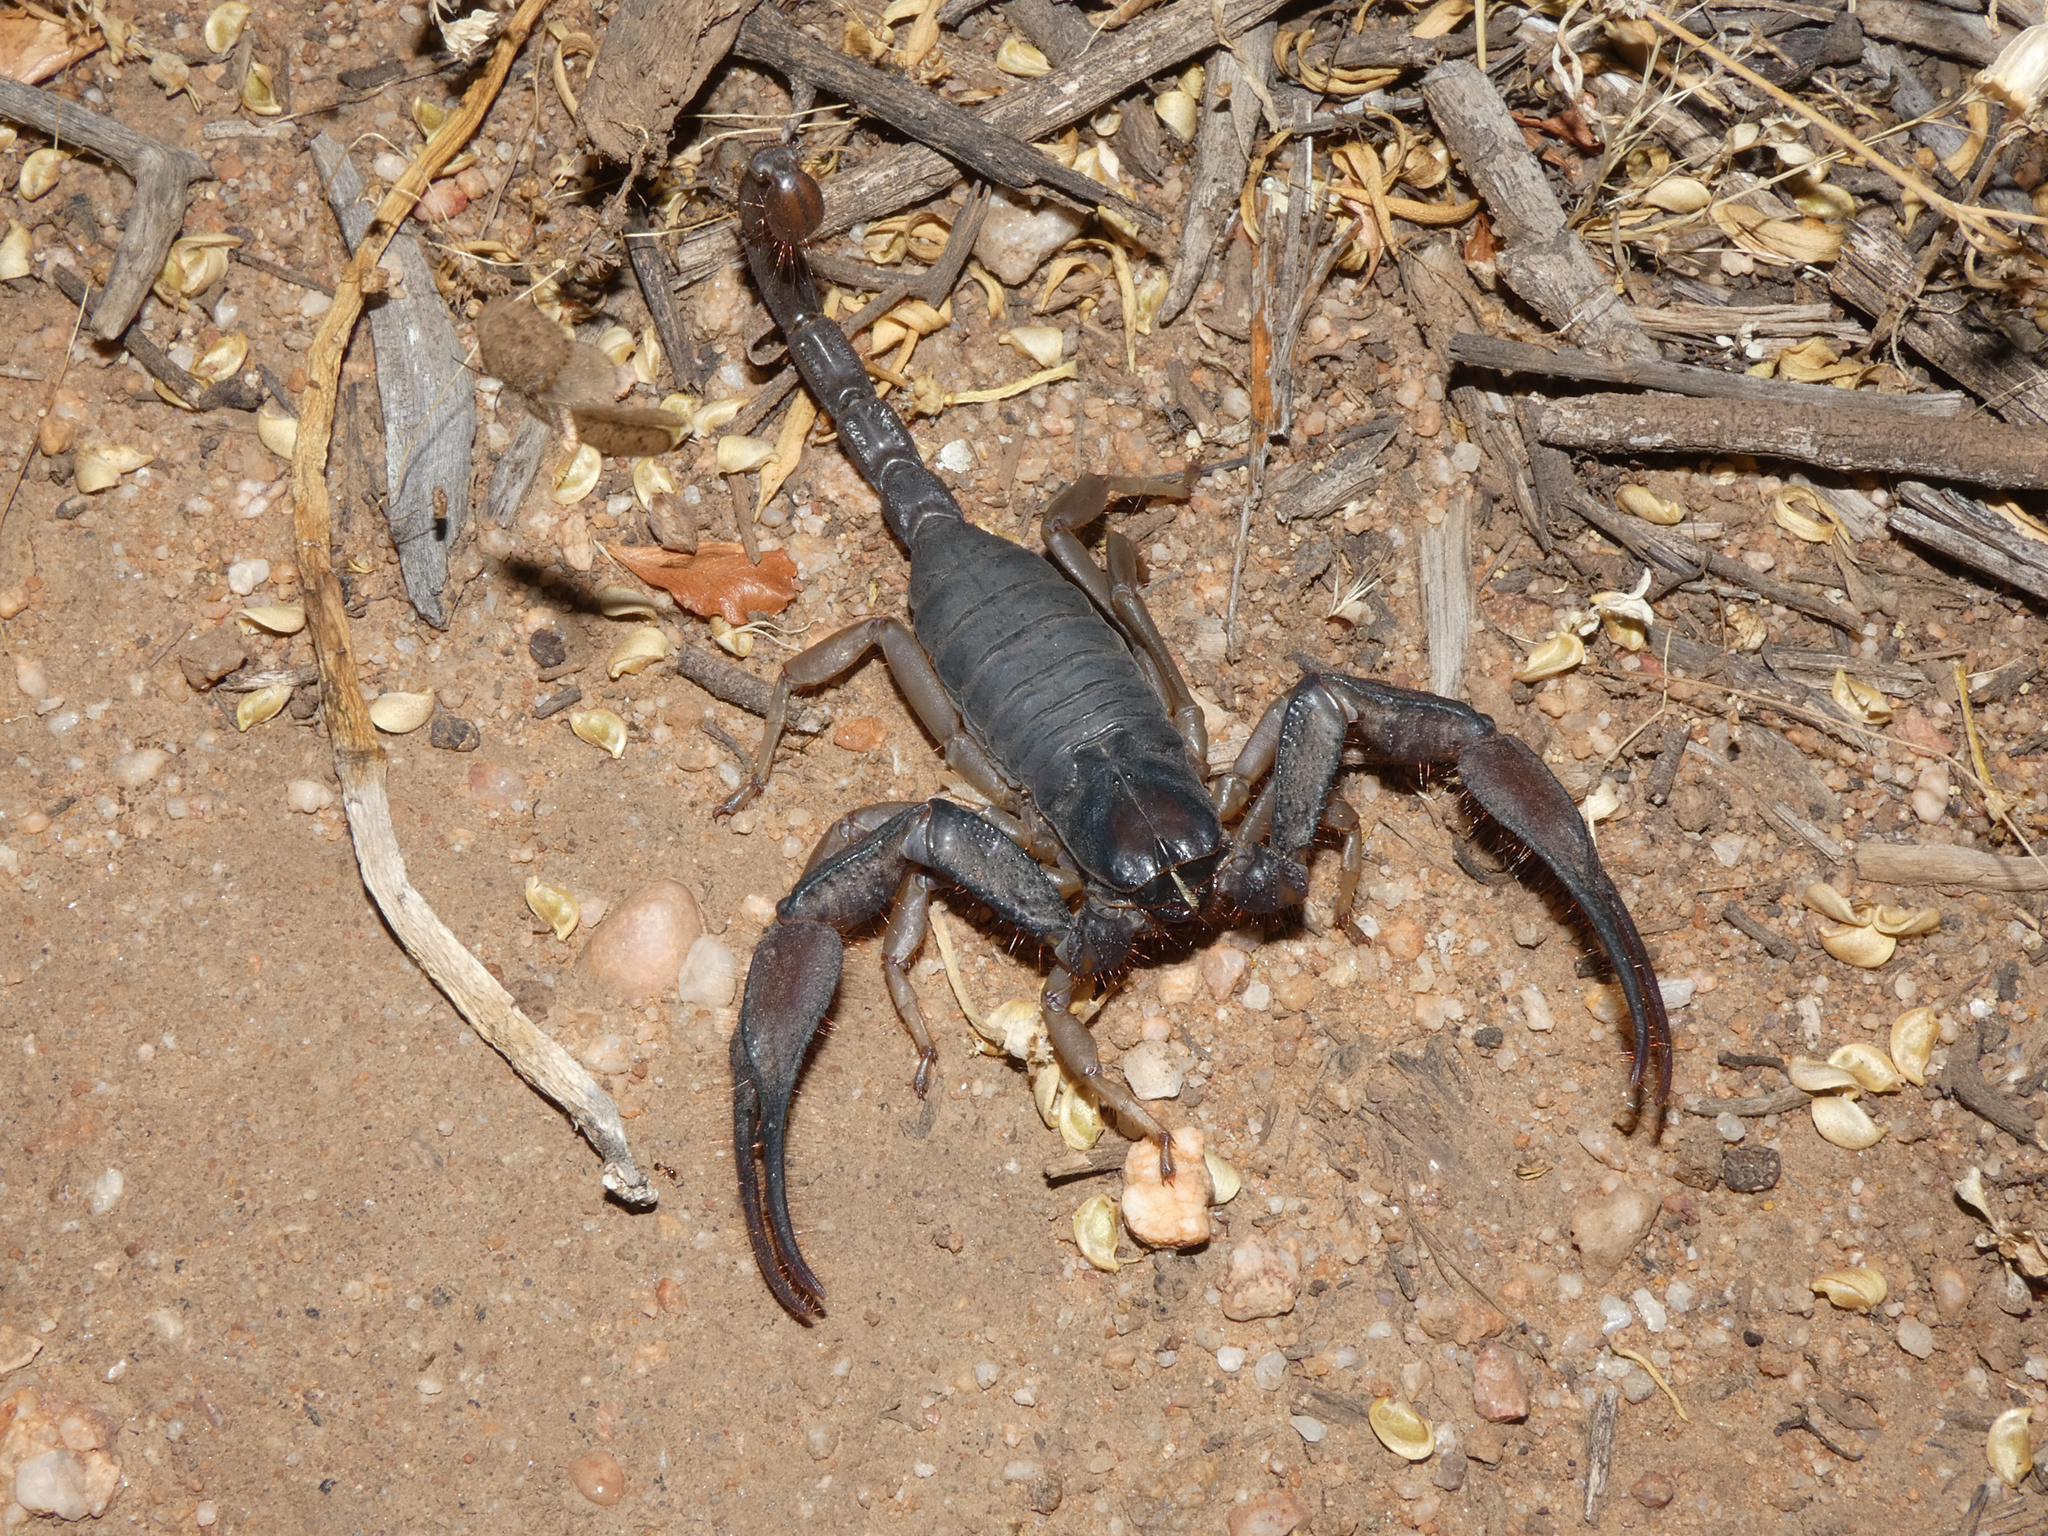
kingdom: Animalia
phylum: Arthropoda
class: Arachnida
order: Scorpiones
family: Scorpionidae
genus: Opistophthalmus
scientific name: Opistophthalmus peringueyi
